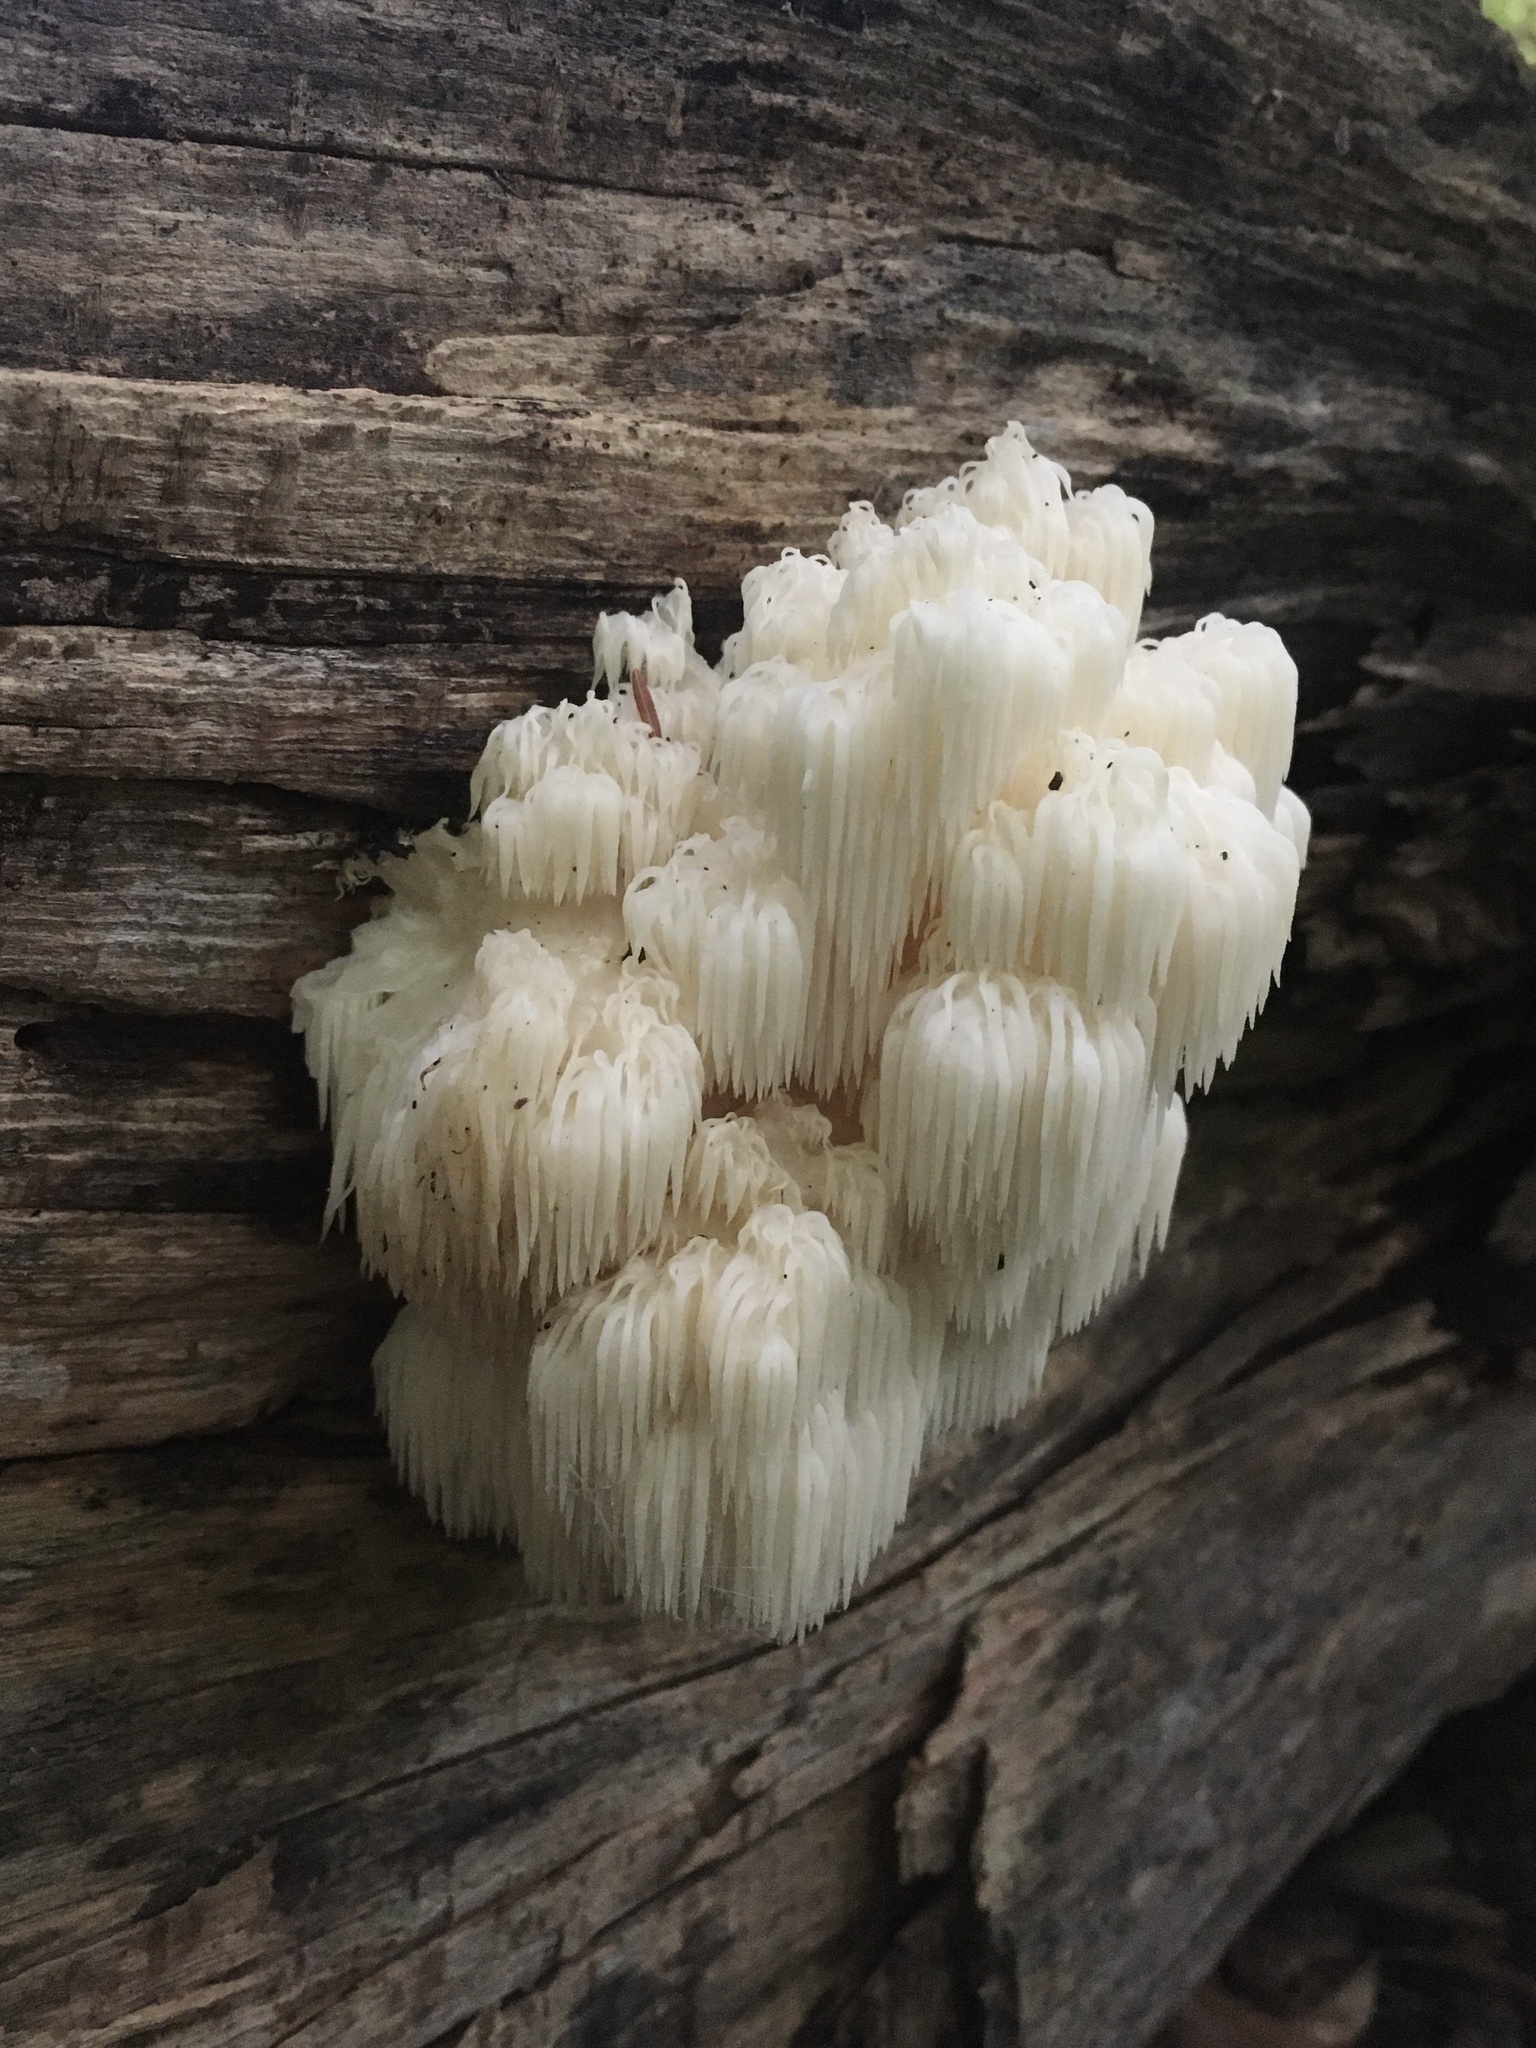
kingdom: Fungi
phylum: Basidiomycota
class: Agaricomycetes
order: Russulales
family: Hericiaceae
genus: Hericium
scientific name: Hericium americanum
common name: Bear's head tooth
